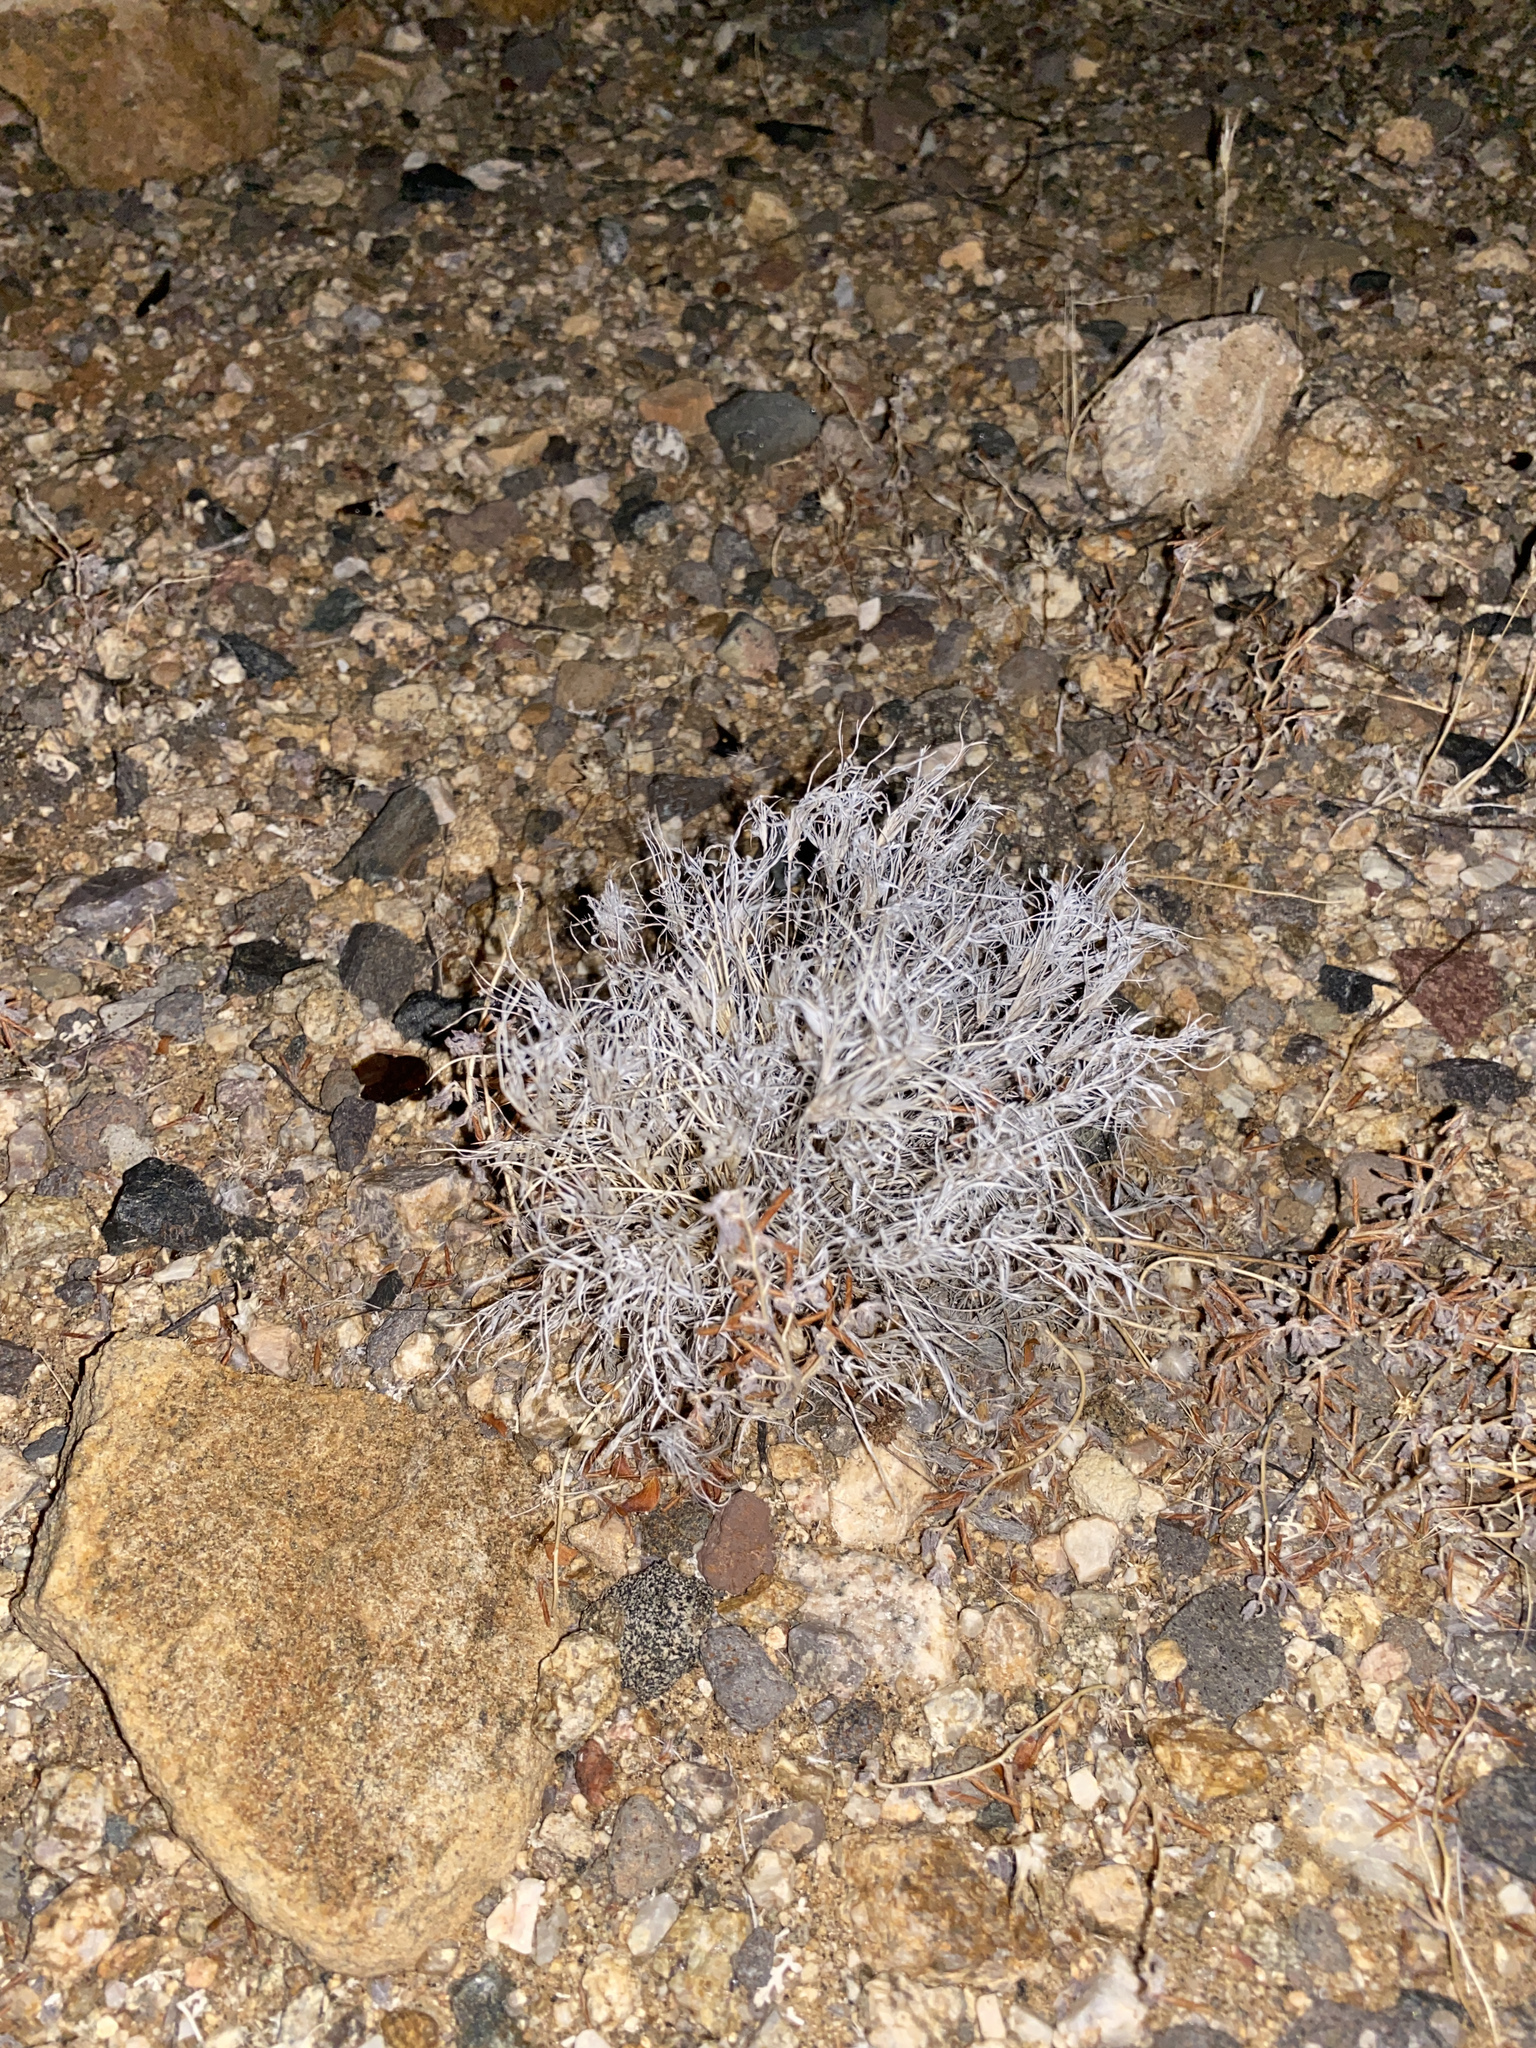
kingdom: Plantae
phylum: Tracheophyta
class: Liliopsida
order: Poales
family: Poaceae
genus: Dasyochloa
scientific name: Dasyochloa pulchella
